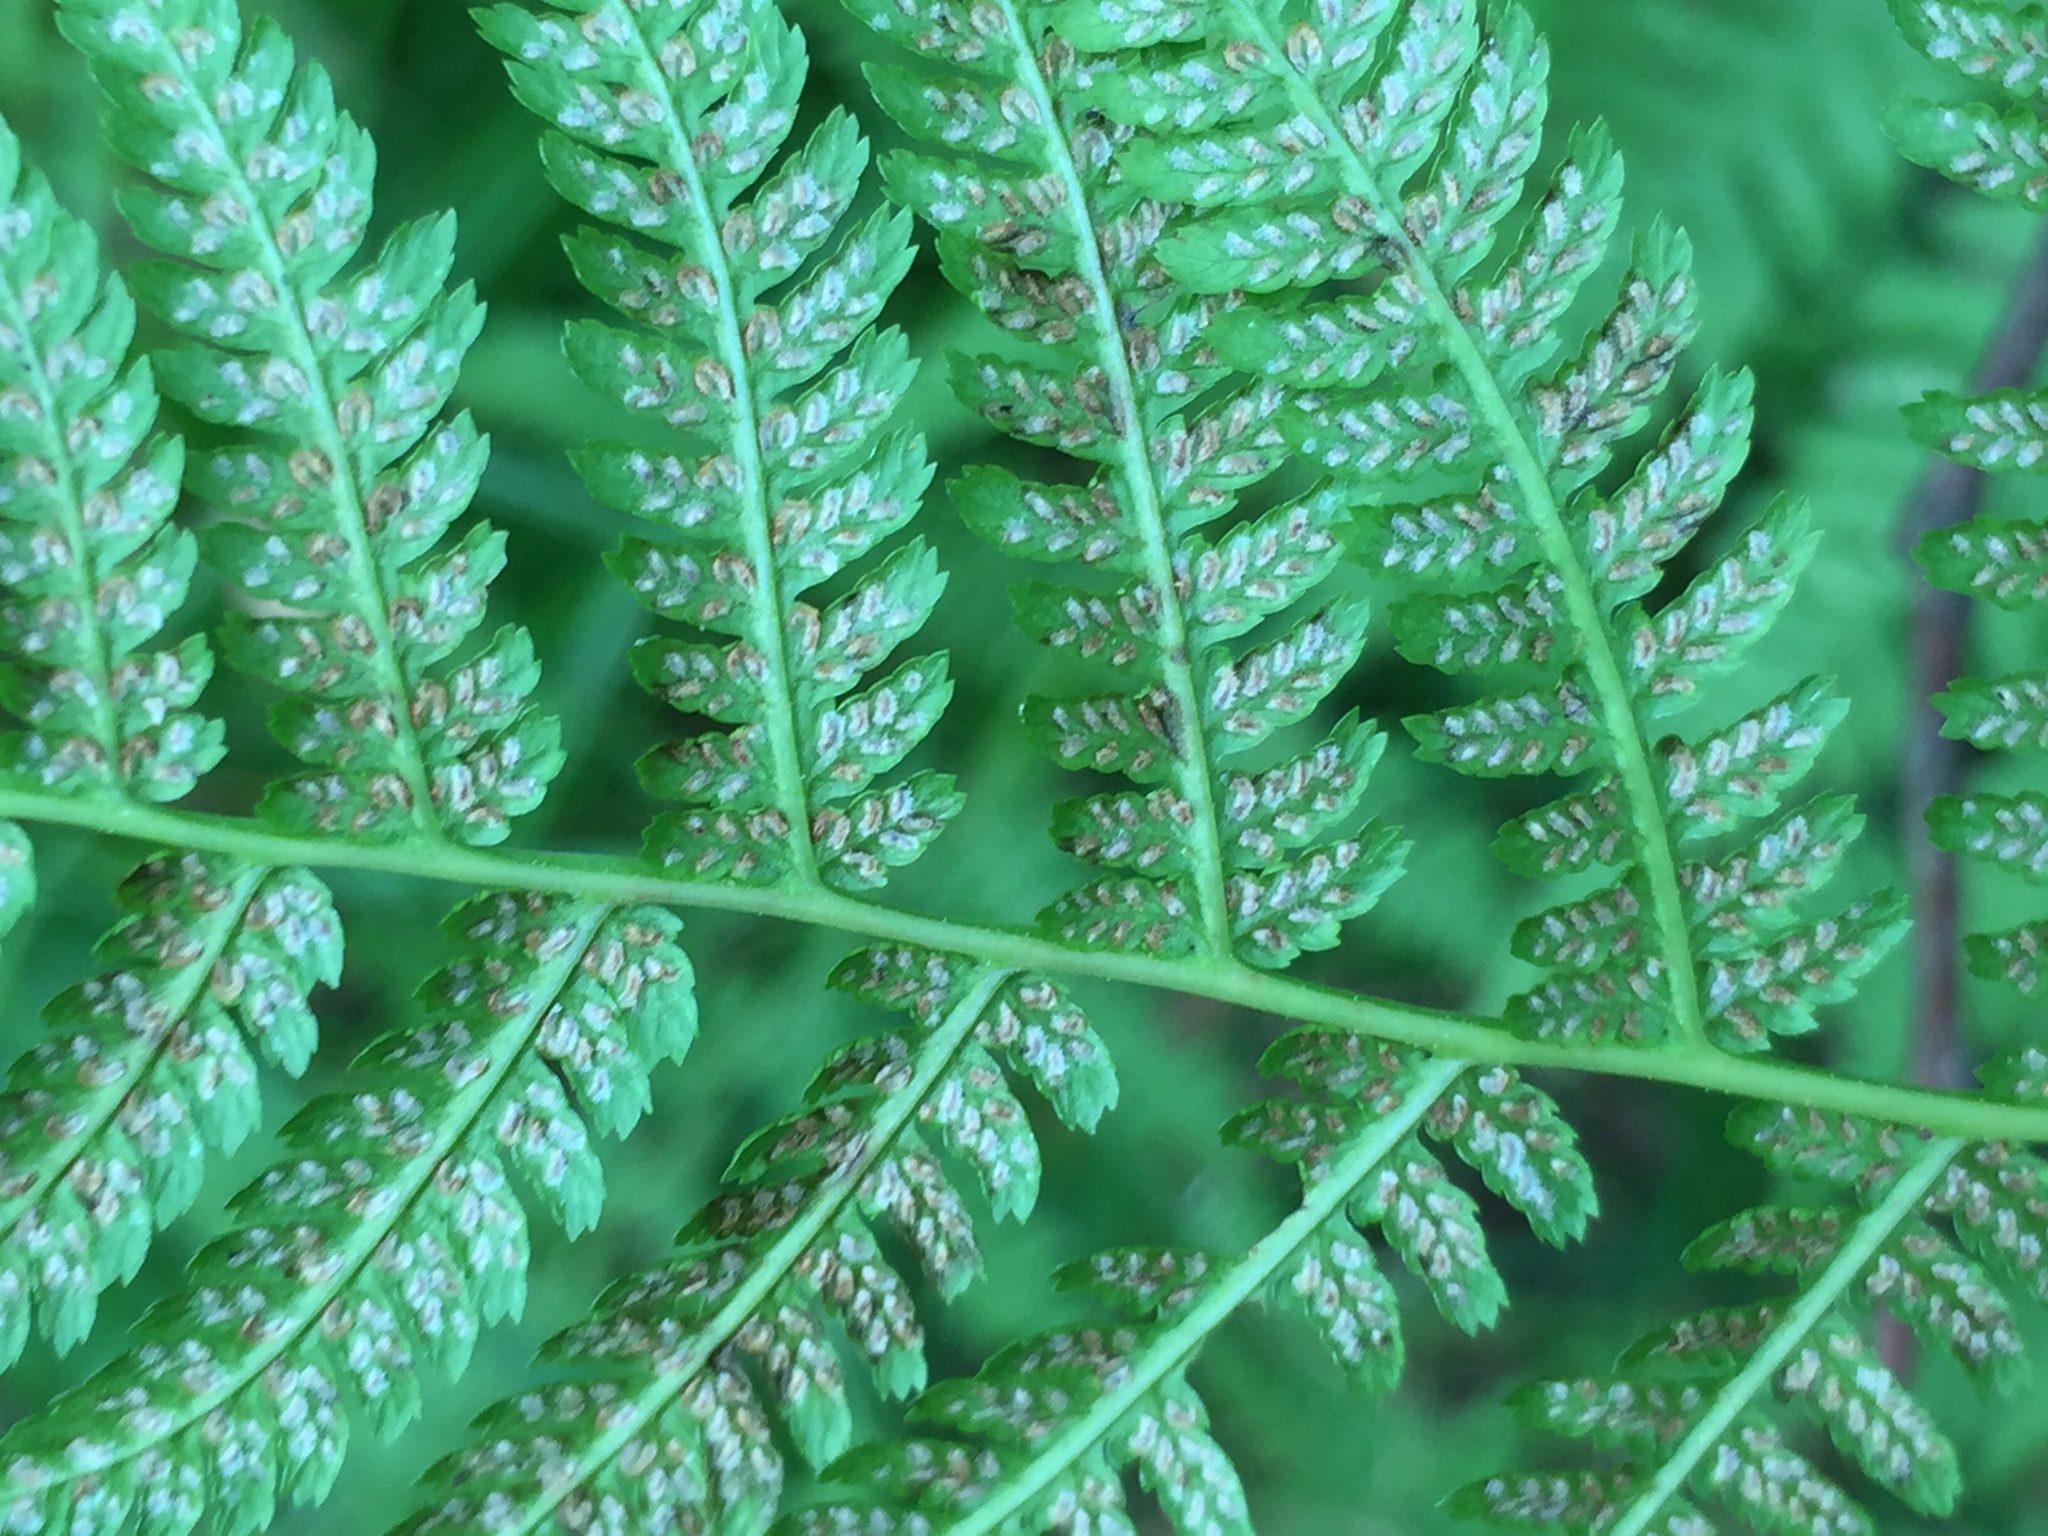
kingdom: Plantae
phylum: Tracheophyta
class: Polypodiopsida
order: Polypodiales
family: Athyriaceae
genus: Athyrium
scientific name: Athyrium angustum
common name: Northern lady fern
